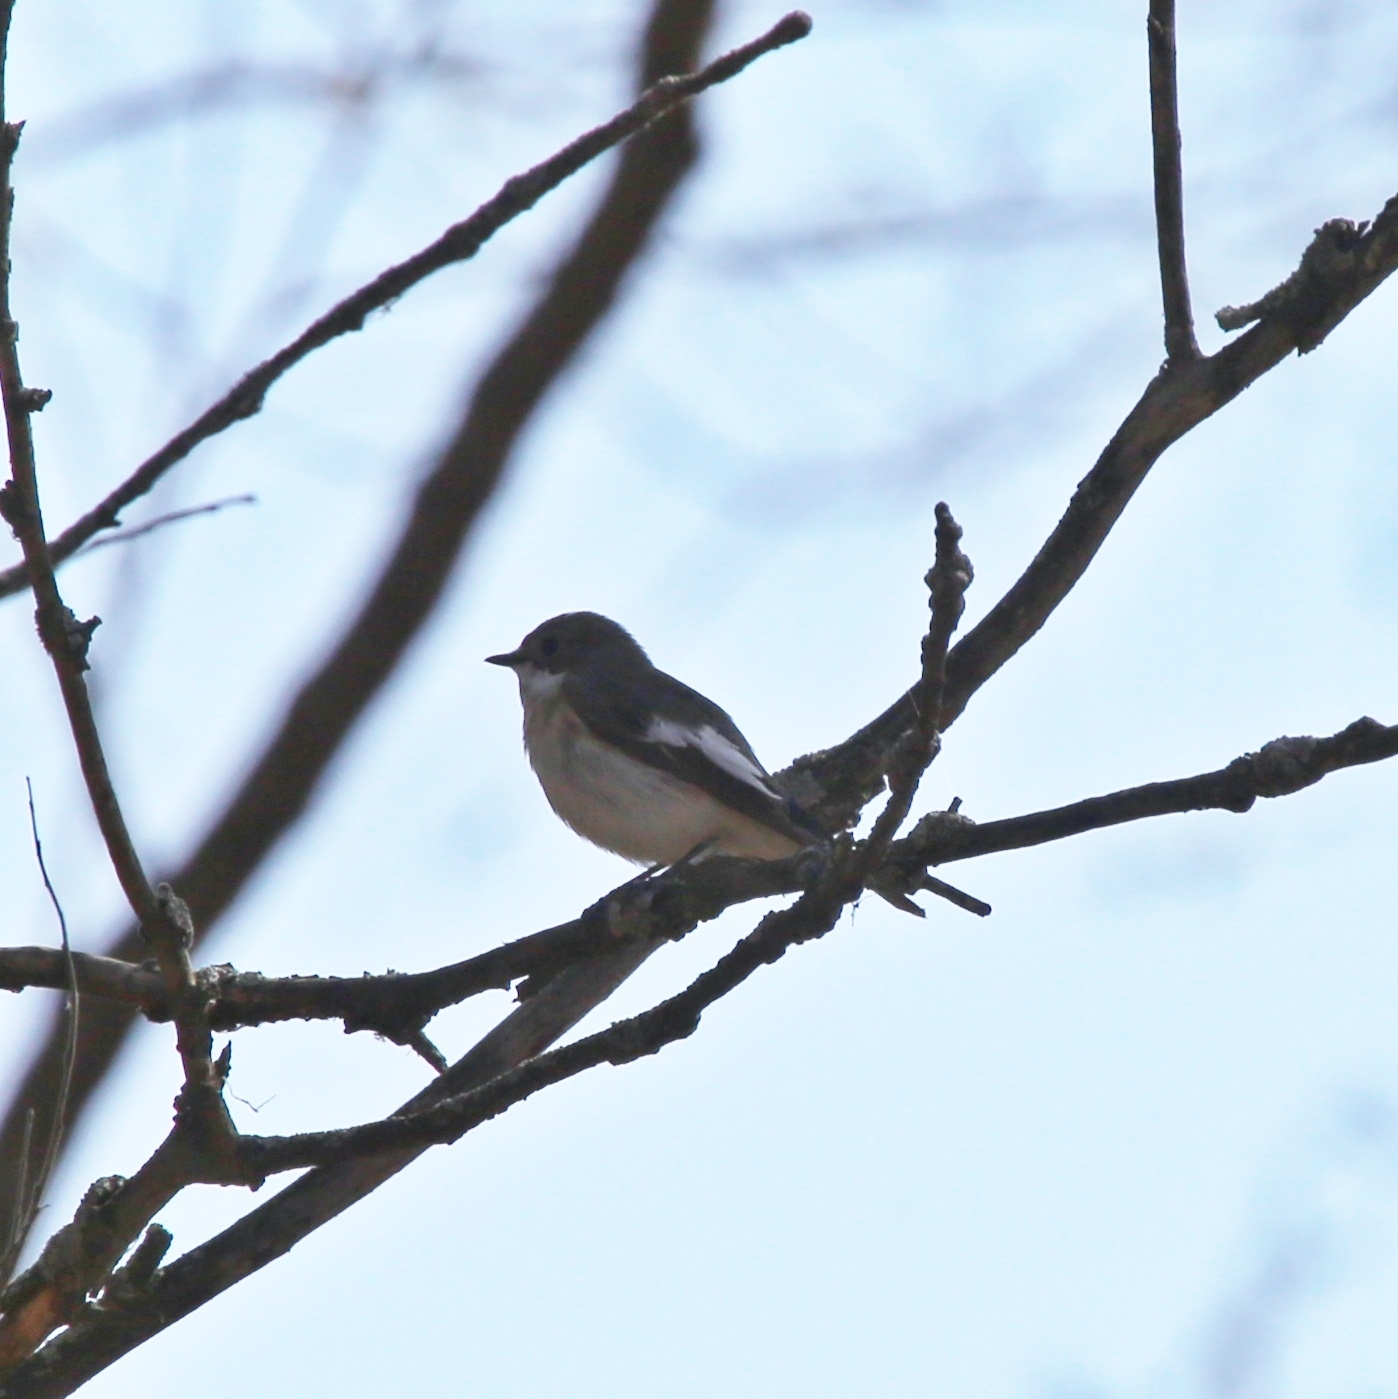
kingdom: Animalia
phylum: Chordata
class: Aves
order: Passeriformes
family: Muscicapidae
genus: Ficedula
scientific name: Ficedula hypoleuca
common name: European pied flycatcher
